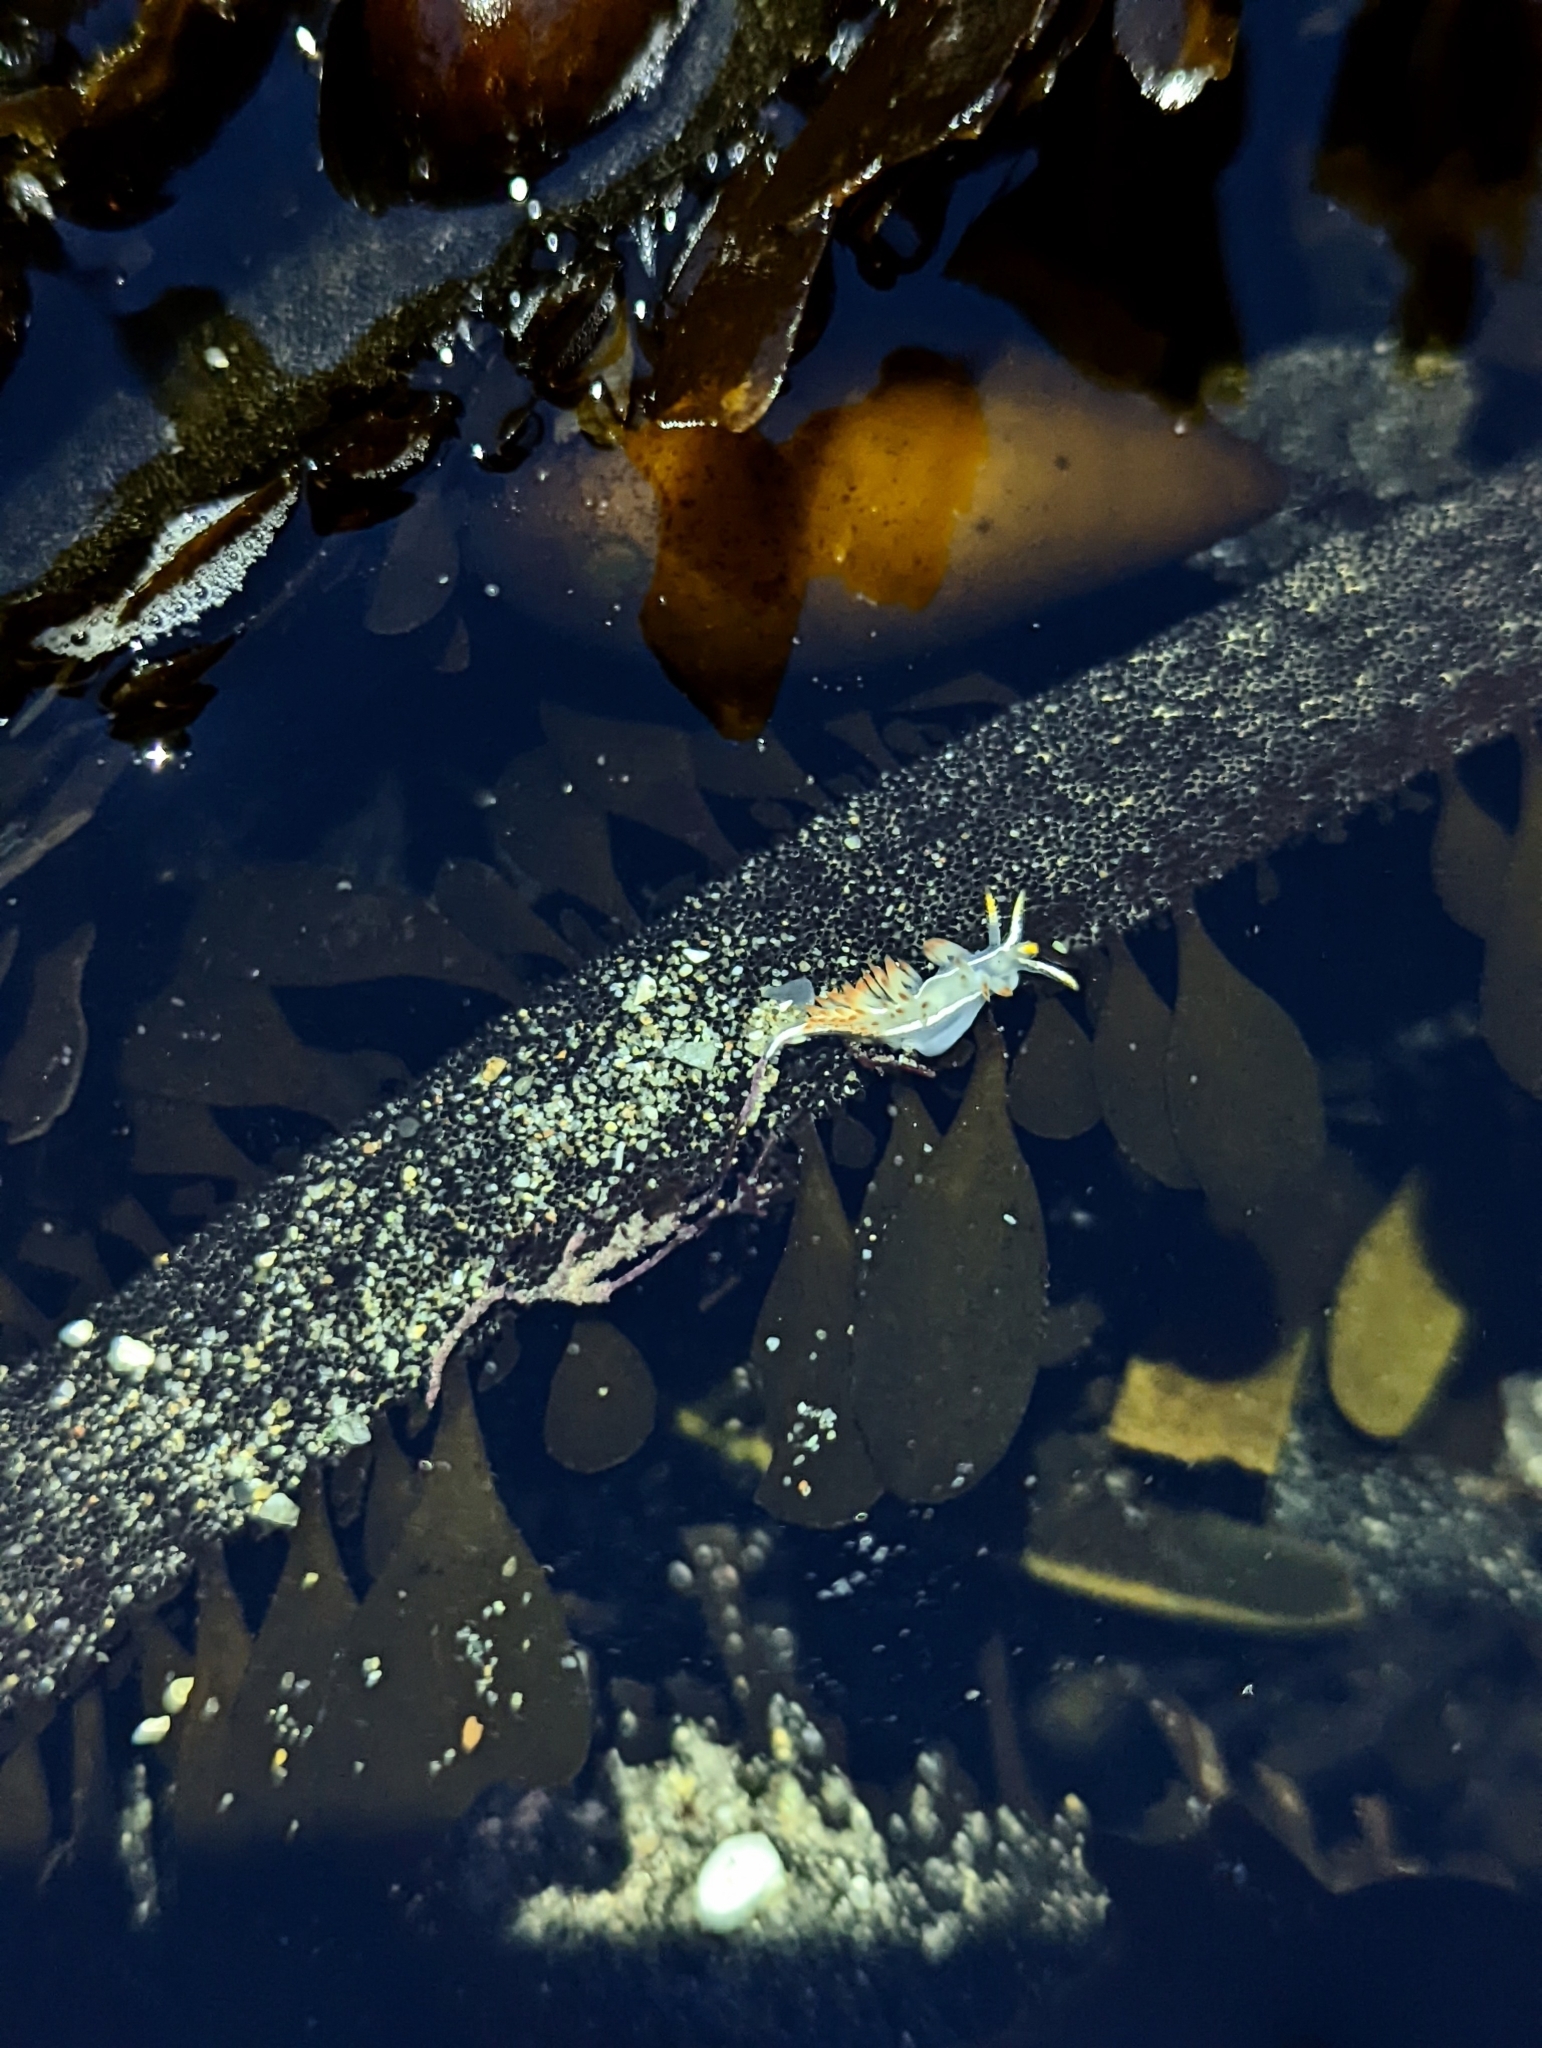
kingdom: Animalia
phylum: Mollusca
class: Gastropoda
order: Nudibranchia
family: Coryphellidae
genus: Coryphella
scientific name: Coryphella trilineata
